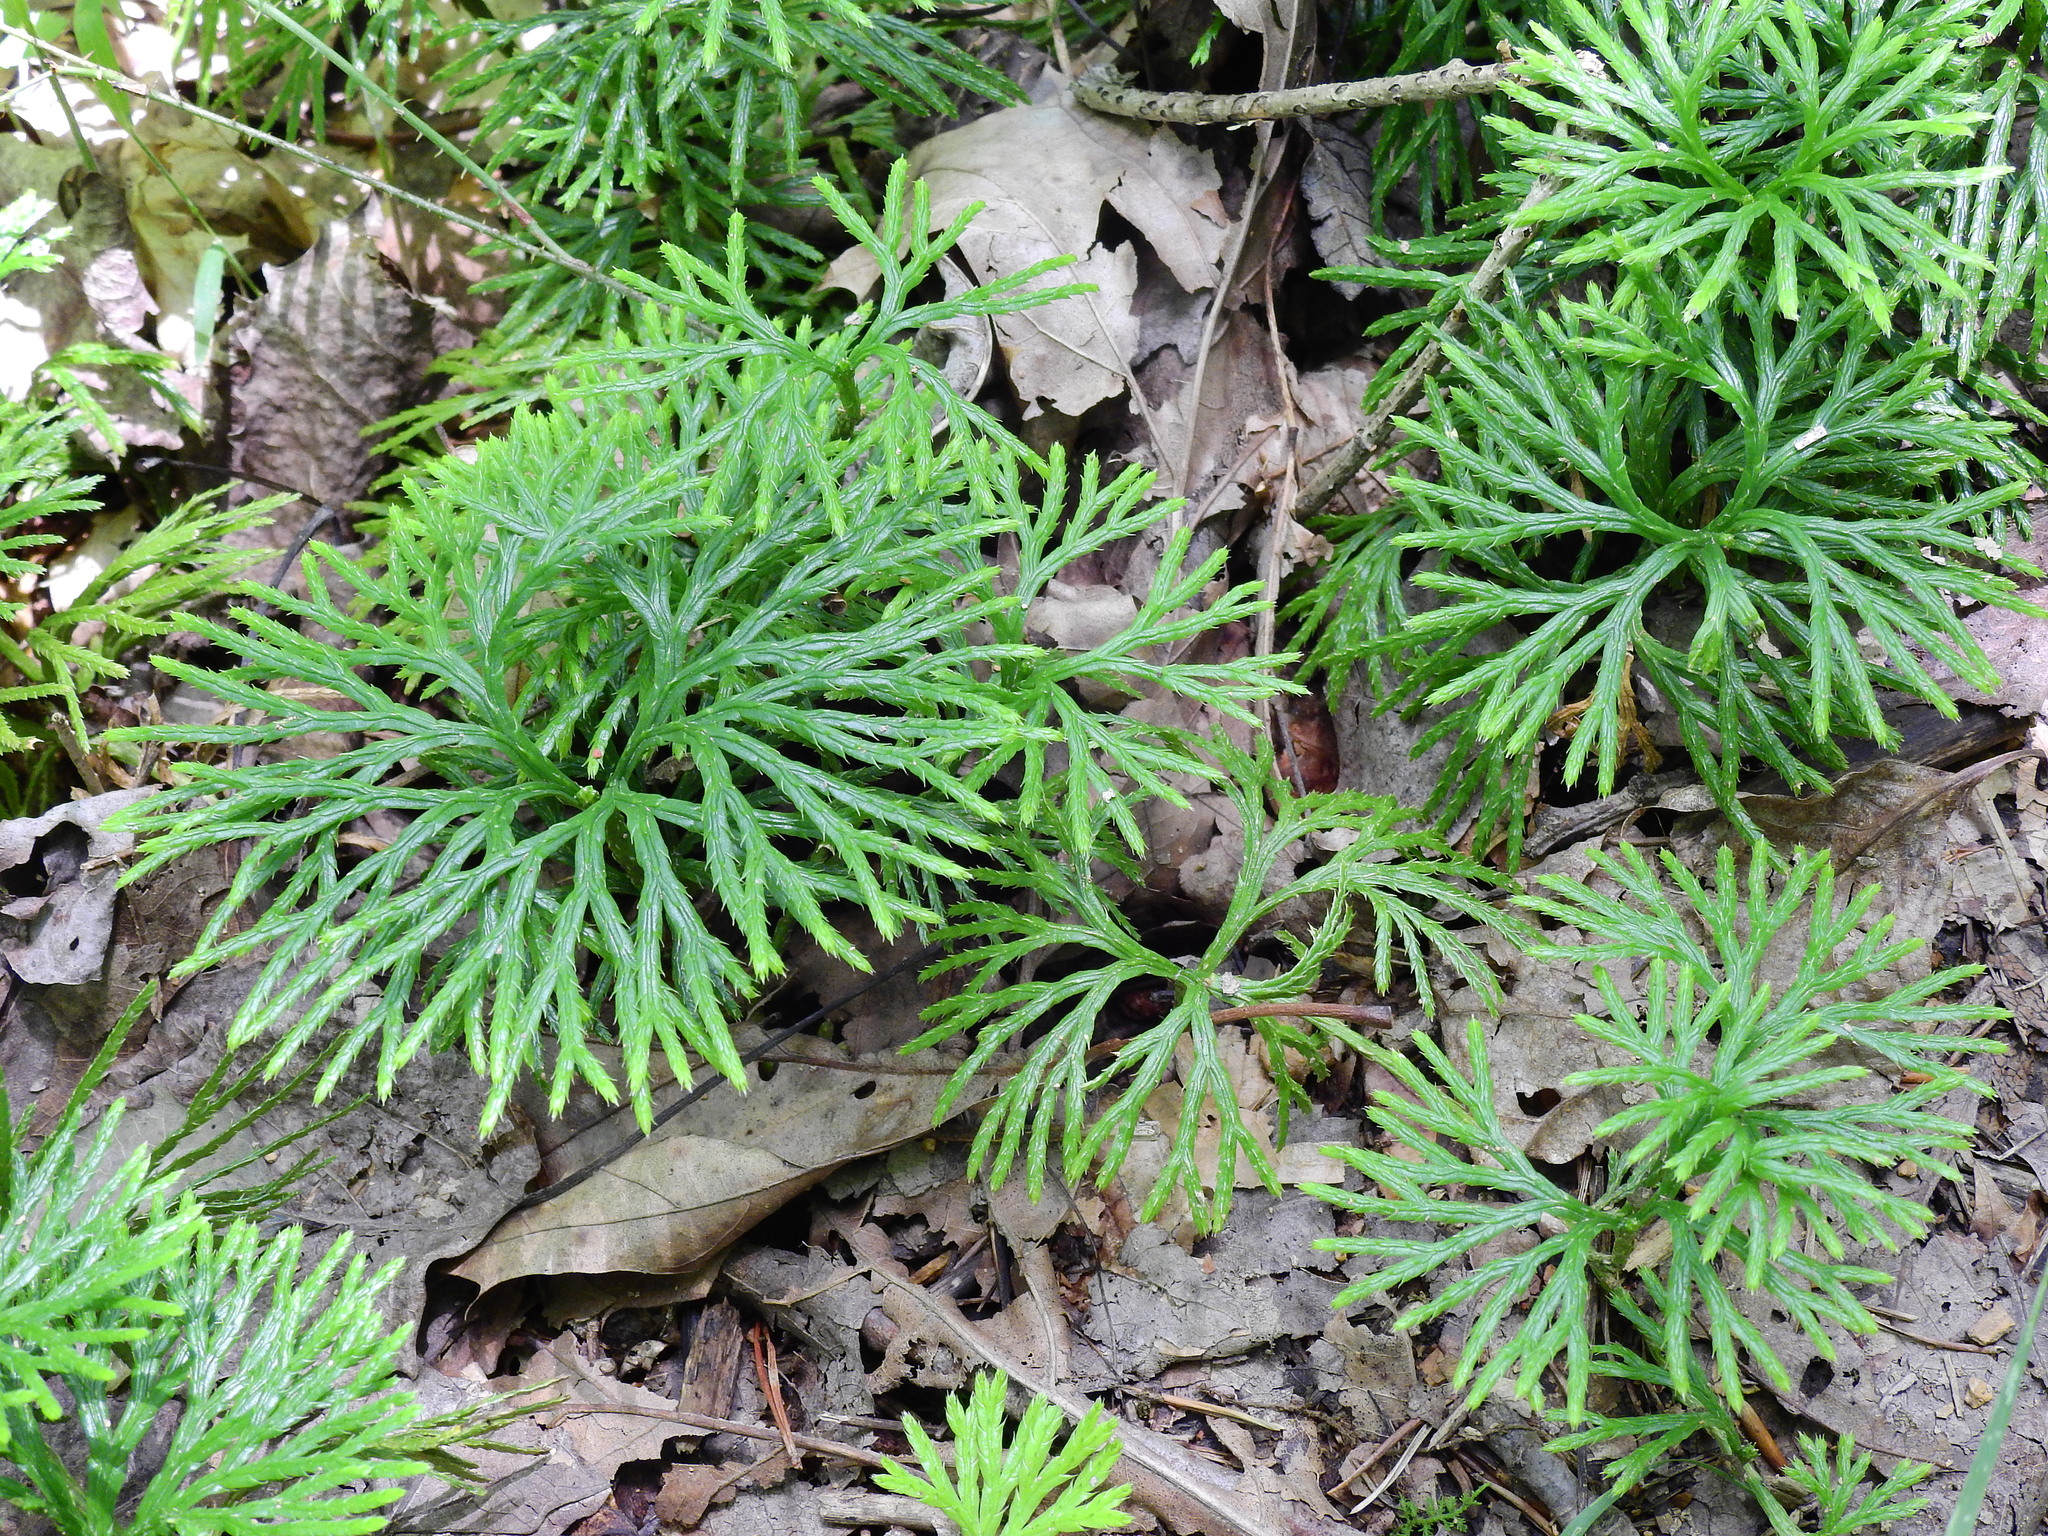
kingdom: Plantae
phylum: Tracheophyta
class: Lycopodiopsida
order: Lycopodiales
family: Lycopodiaceae
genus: Diphasiastrum
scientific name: Diphasiastrum digitatum
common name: Southern running-pine
